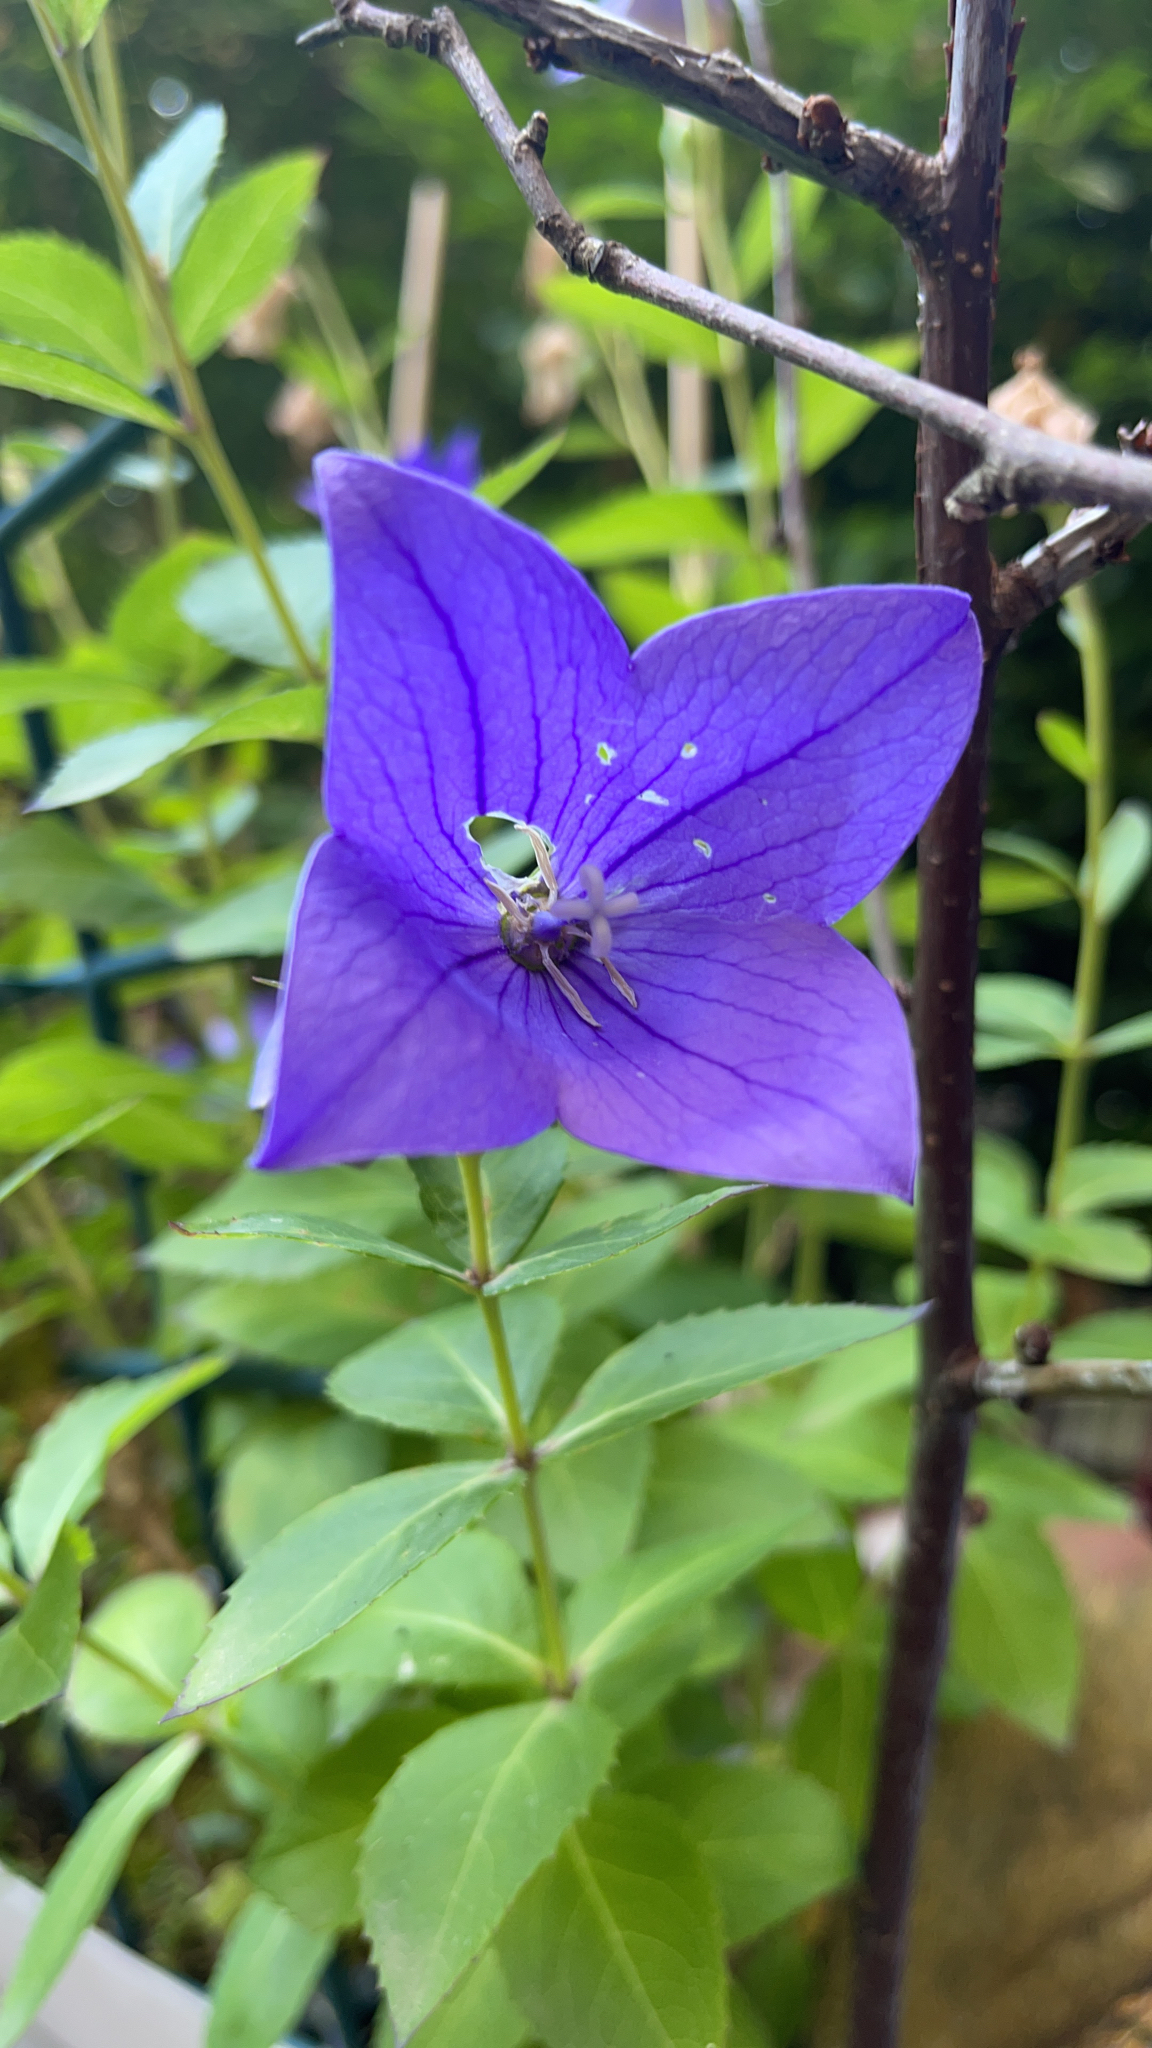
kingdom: Plantae
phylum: Tracheophyta
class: Magnoliopsida
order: Asterales
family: Campanulaceae
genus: Platycodon
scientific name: Platycodon grandiflorus
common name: Balloon-flower
